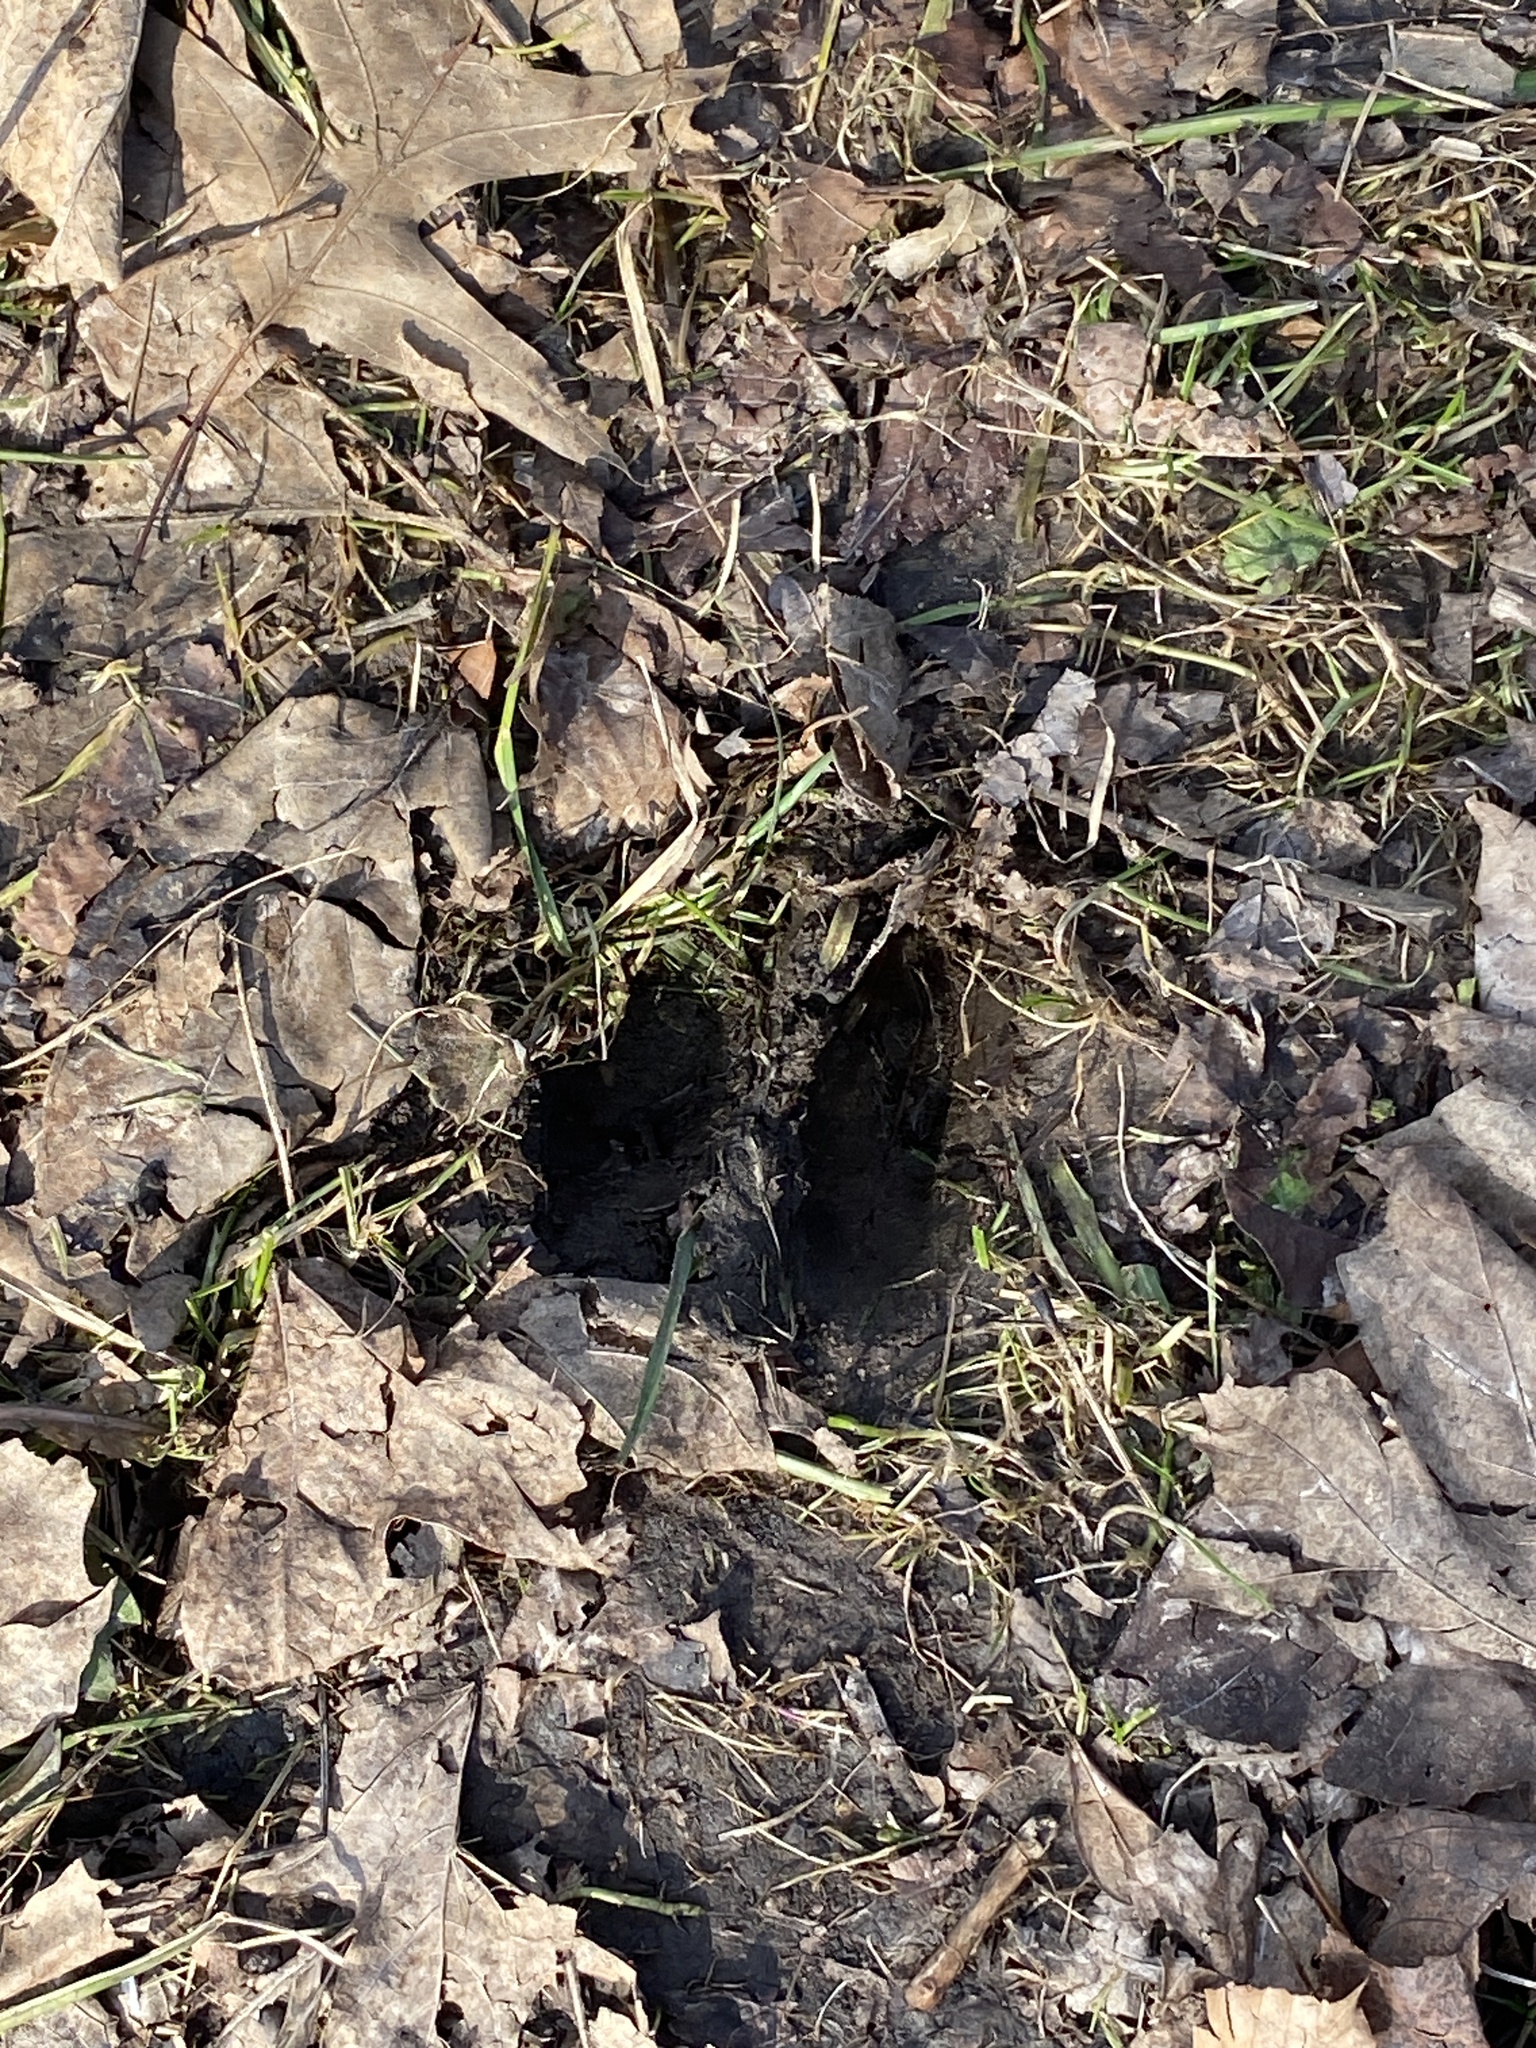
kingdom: Animalia
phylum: Chordata
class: Mammalia
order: Artiodactyla
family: Cervidae
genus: Odocoileus
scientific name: Odocoileus virginianus
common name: White-tailed deer
